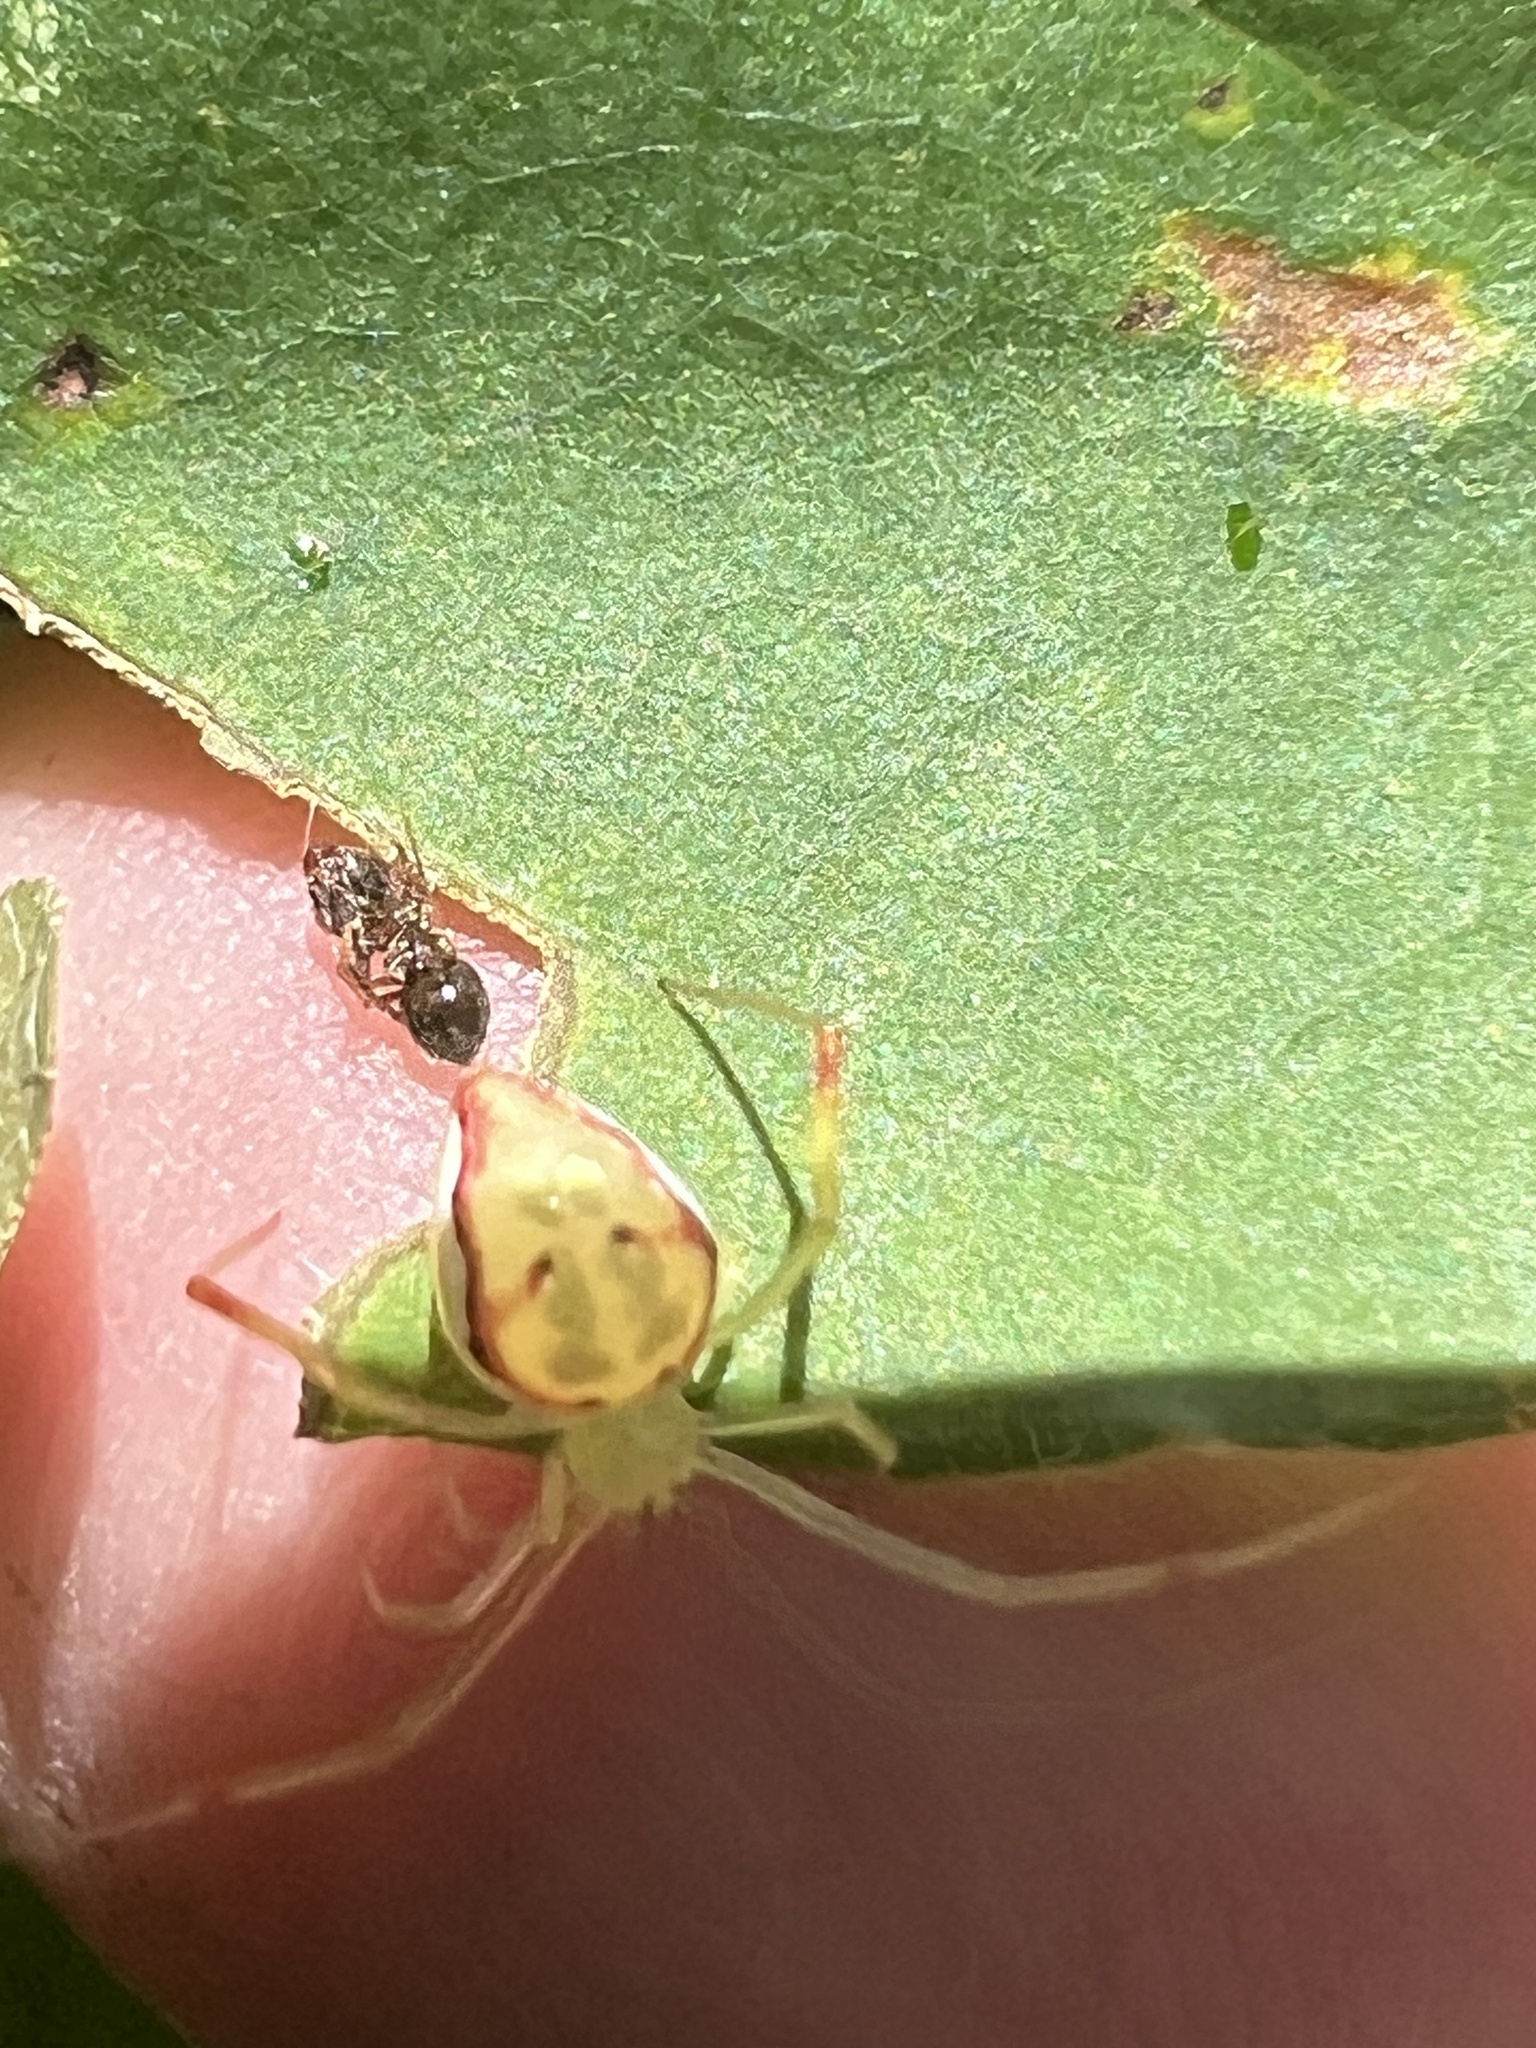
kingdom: Animalia
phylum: Arthropoda
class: Arachnida
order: Araneae
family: Theridiidae
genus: Spintharus
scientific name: Spintharus flavidus
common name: Cobweb spiders
